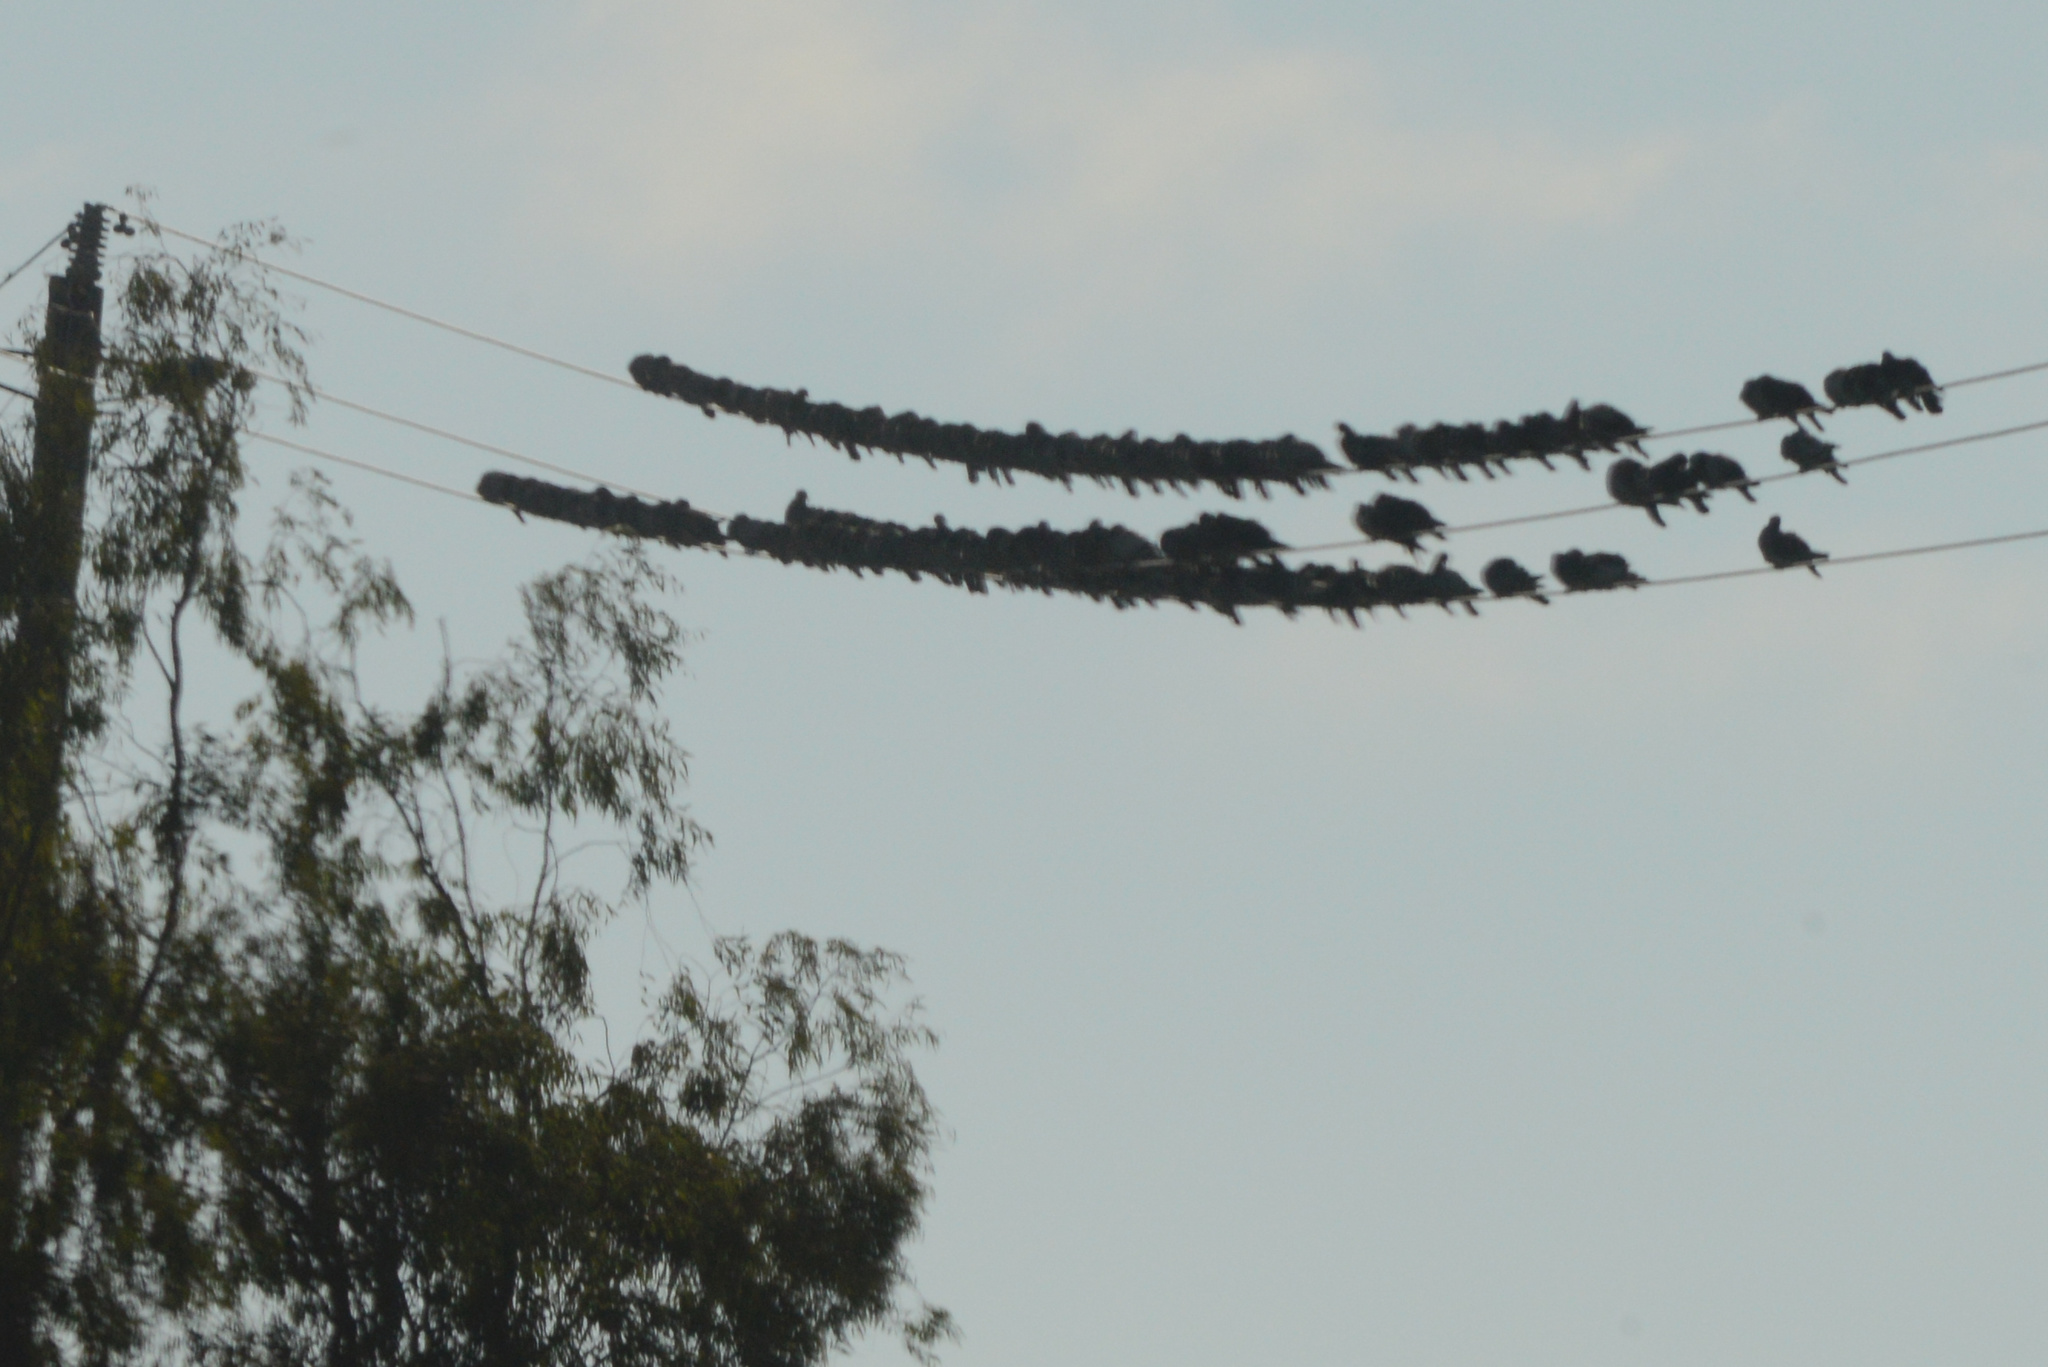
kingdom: Animalia
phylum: Chordata
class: Aves
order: Columbiformes
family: Columbidae
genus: Columba
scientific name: Columba livia
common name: Rock pigeon
